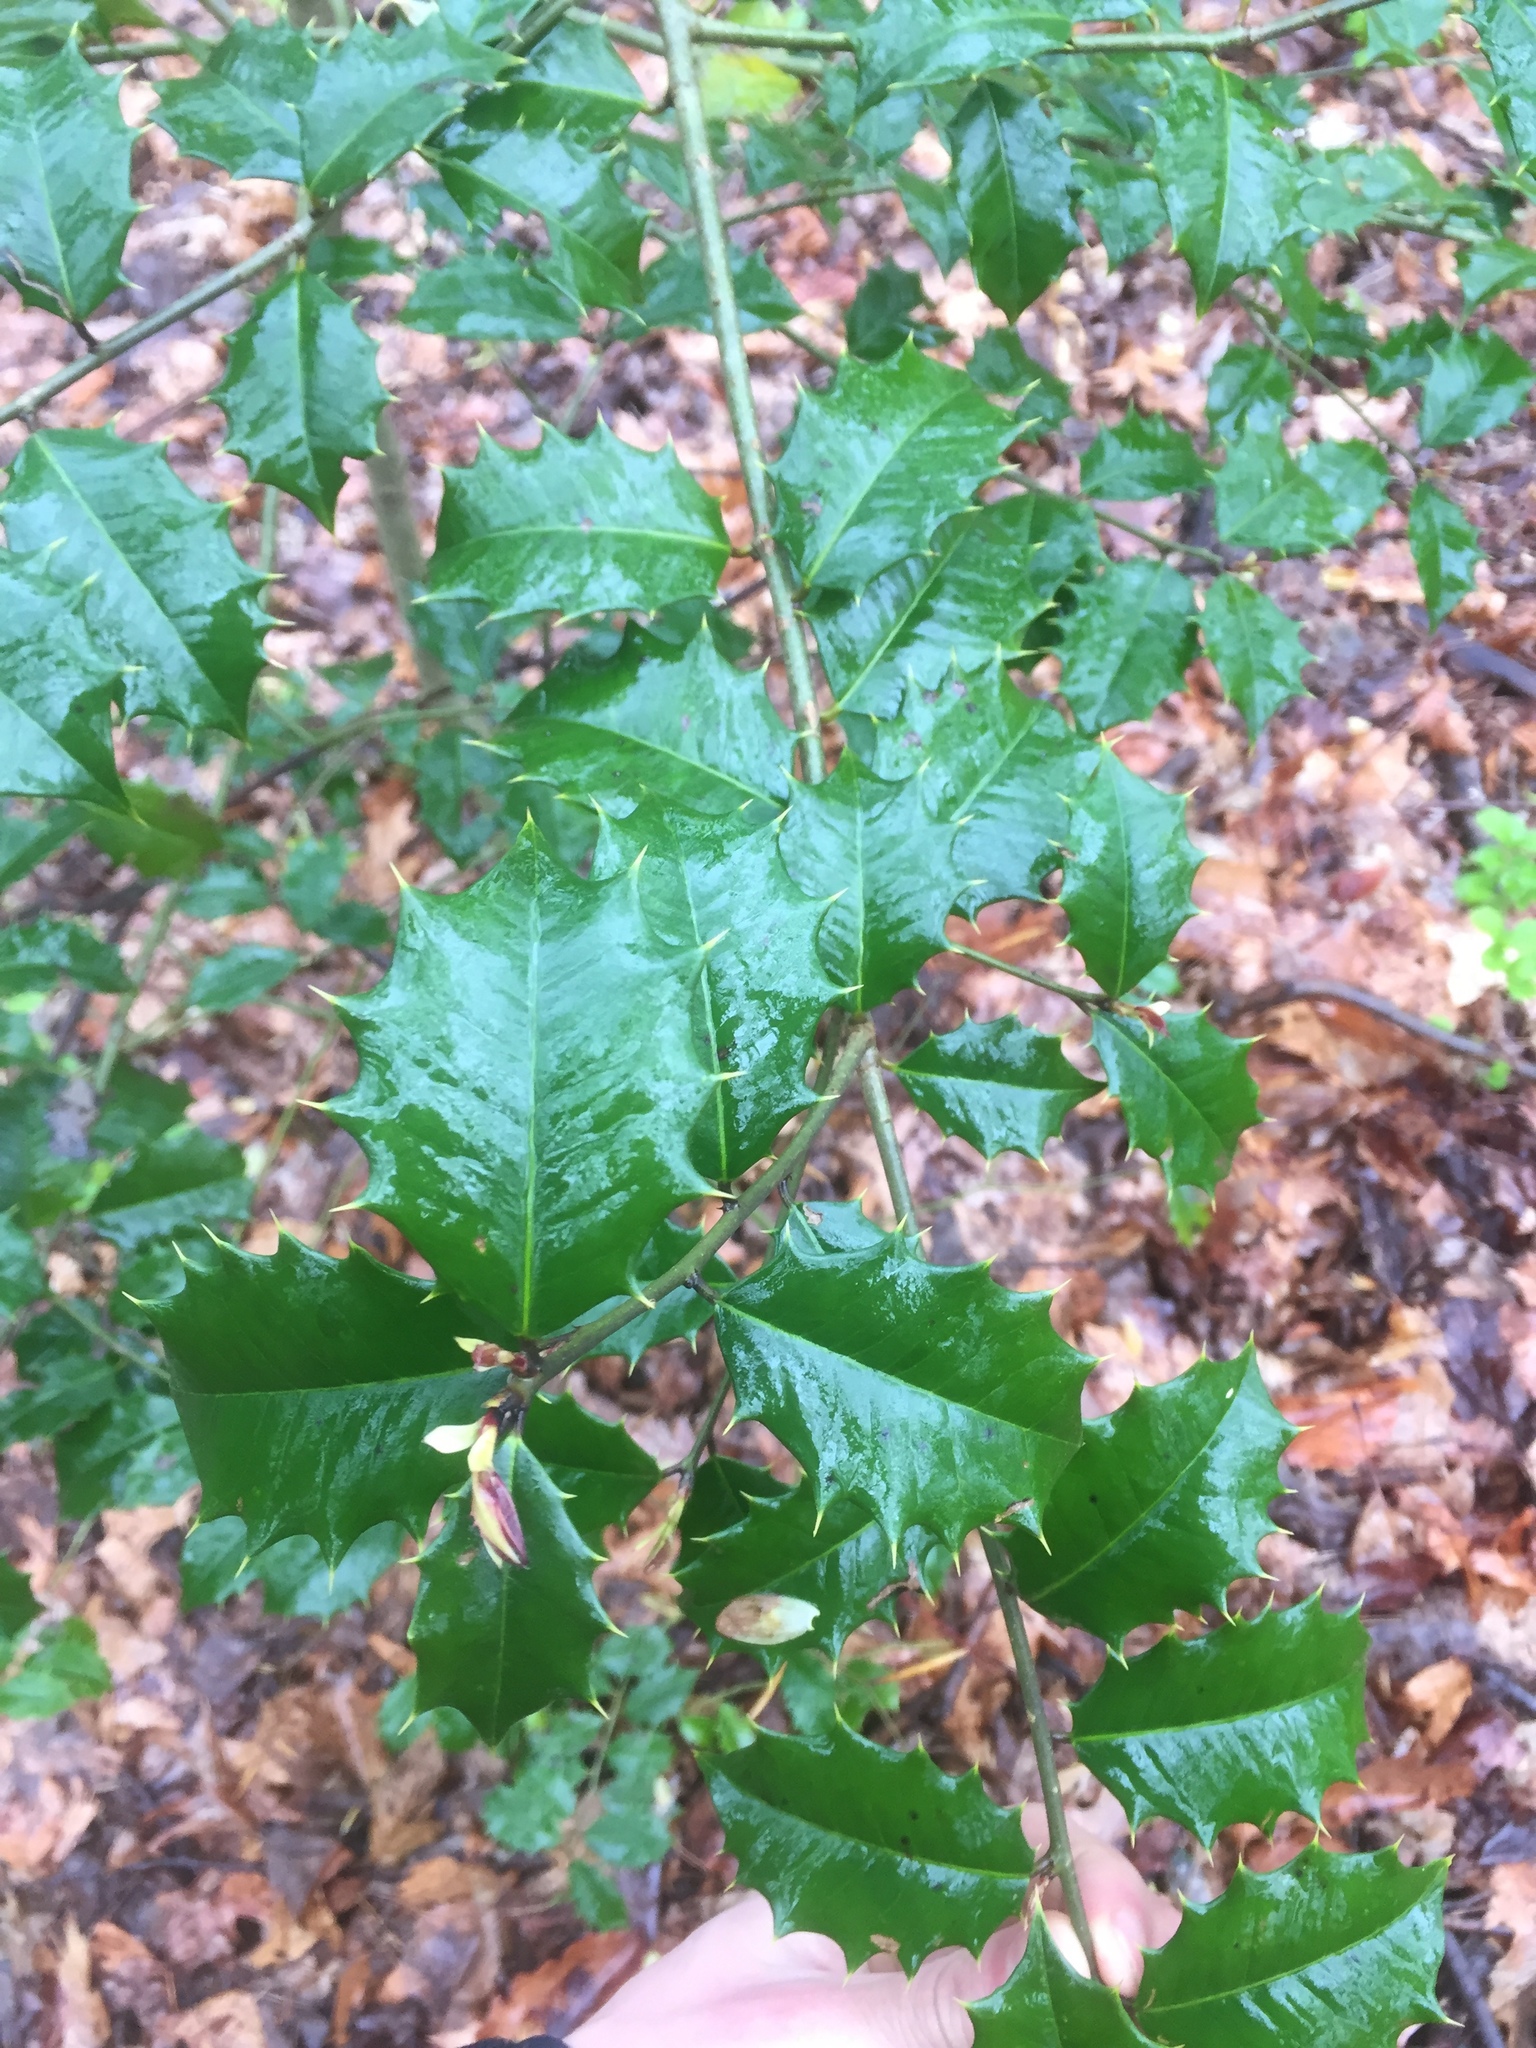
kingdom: Plantae
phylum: Tracheophyta
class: Magnoliopsida
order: Aquifoliales
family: Aquifoliaceae
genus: Ilex
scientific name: Ilex opaca
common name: American holly
